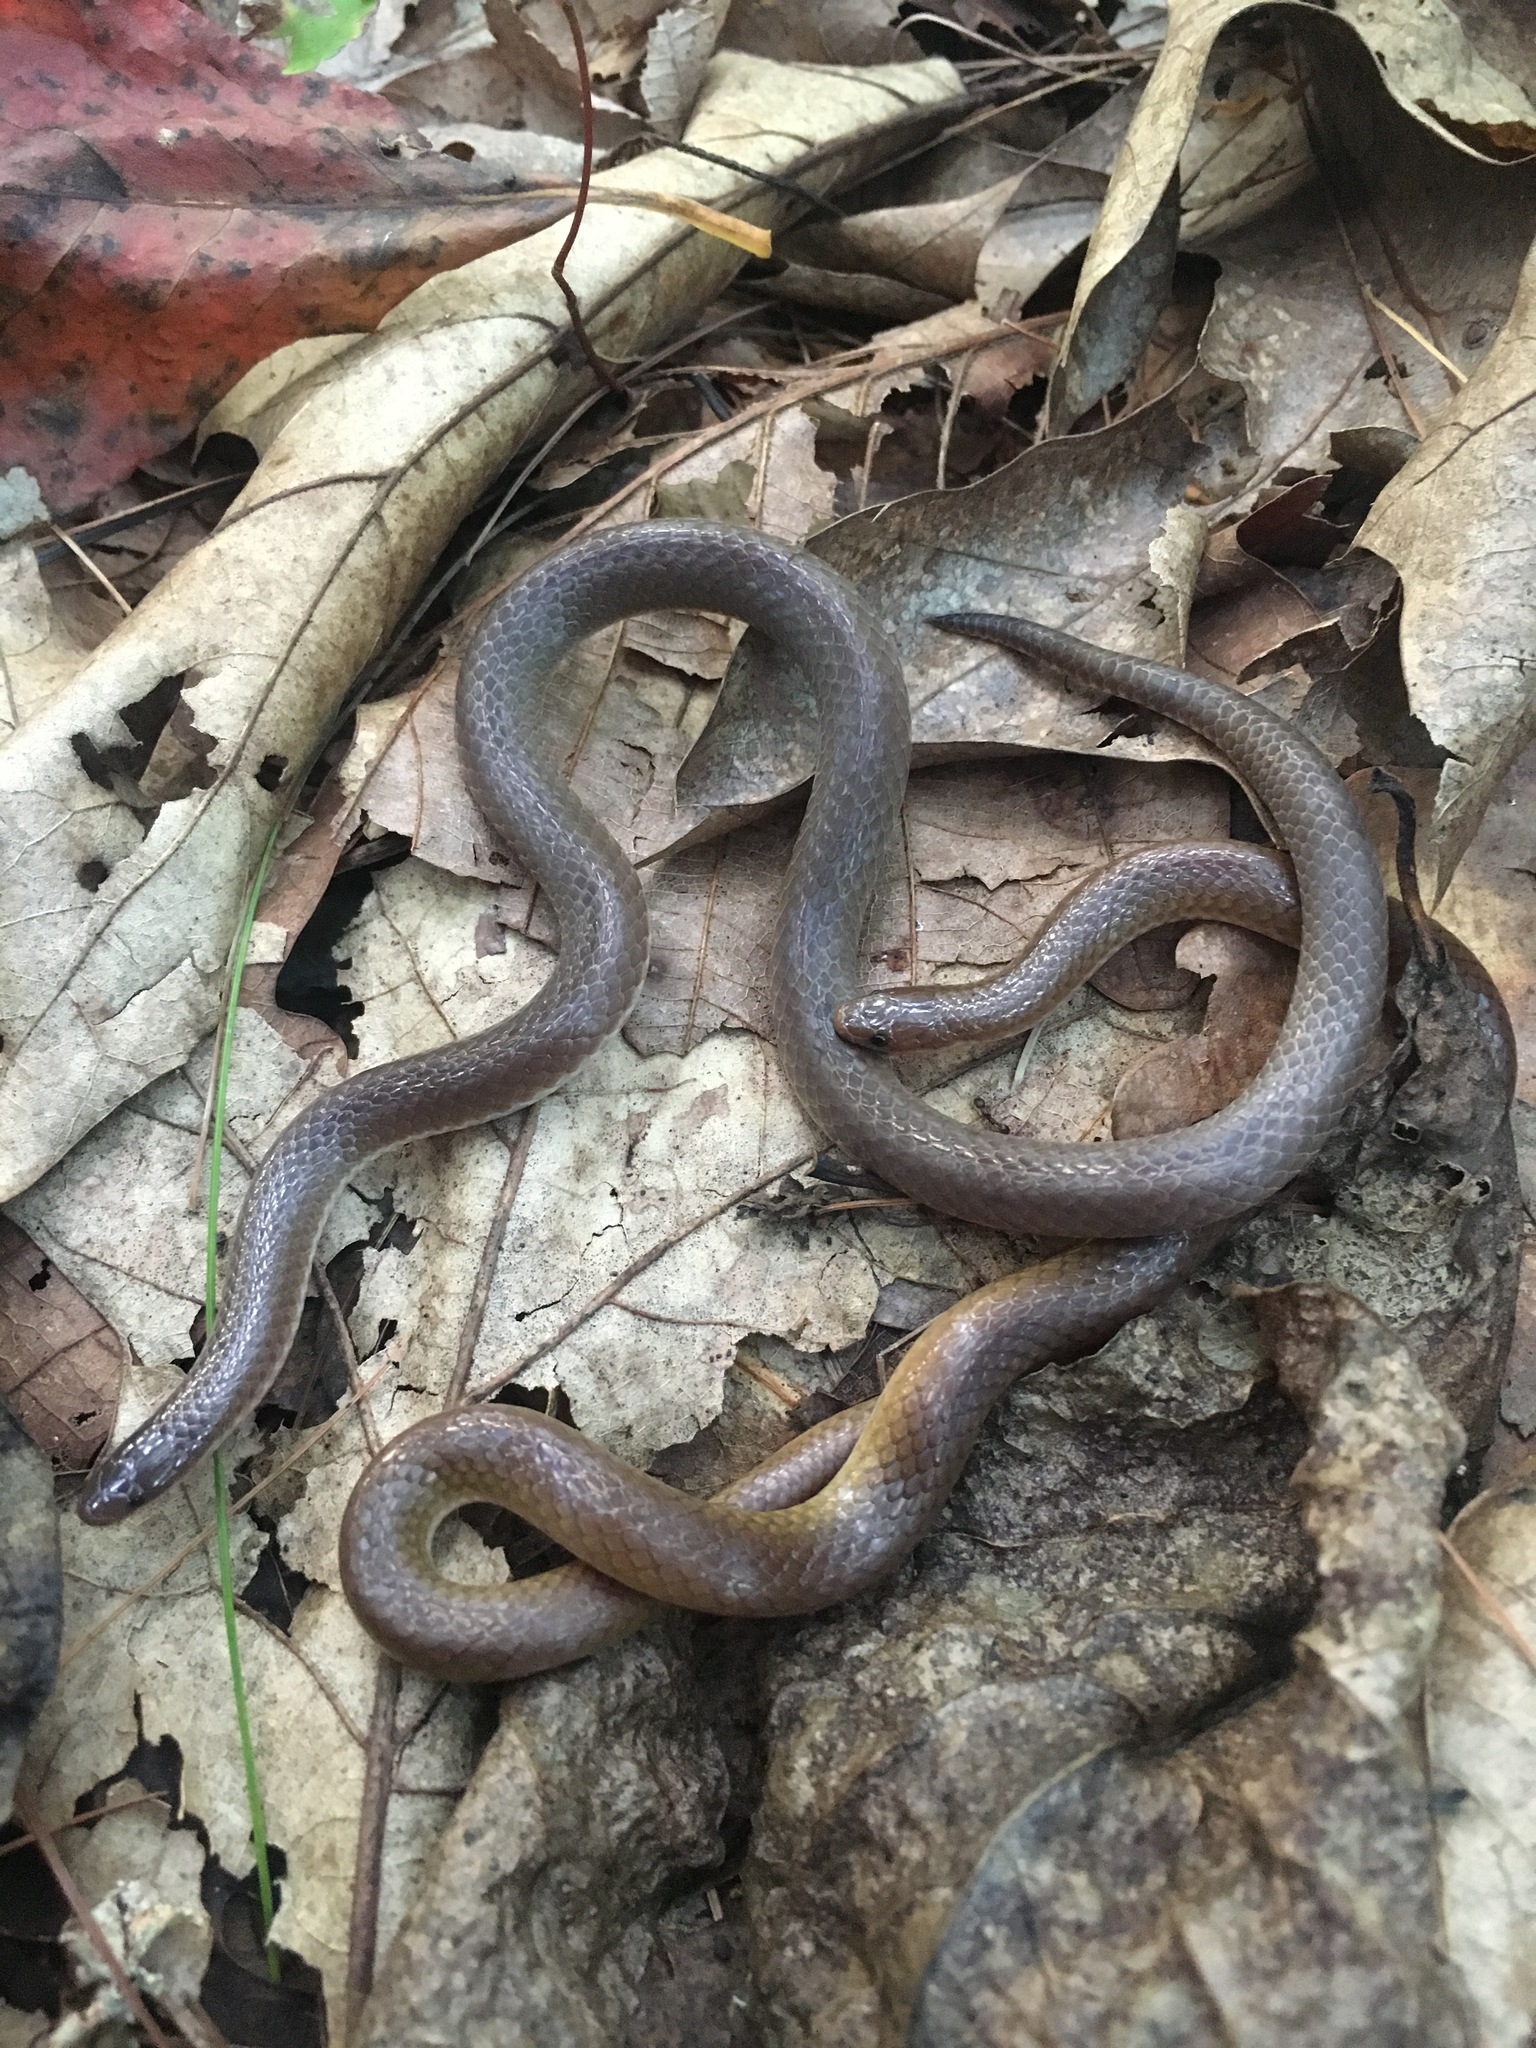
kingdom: Animalia
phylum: Chordata
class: Squamata
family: Colubridae
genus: Carphophis
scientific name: Carphophis amoenus
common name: Eastern worm snake
